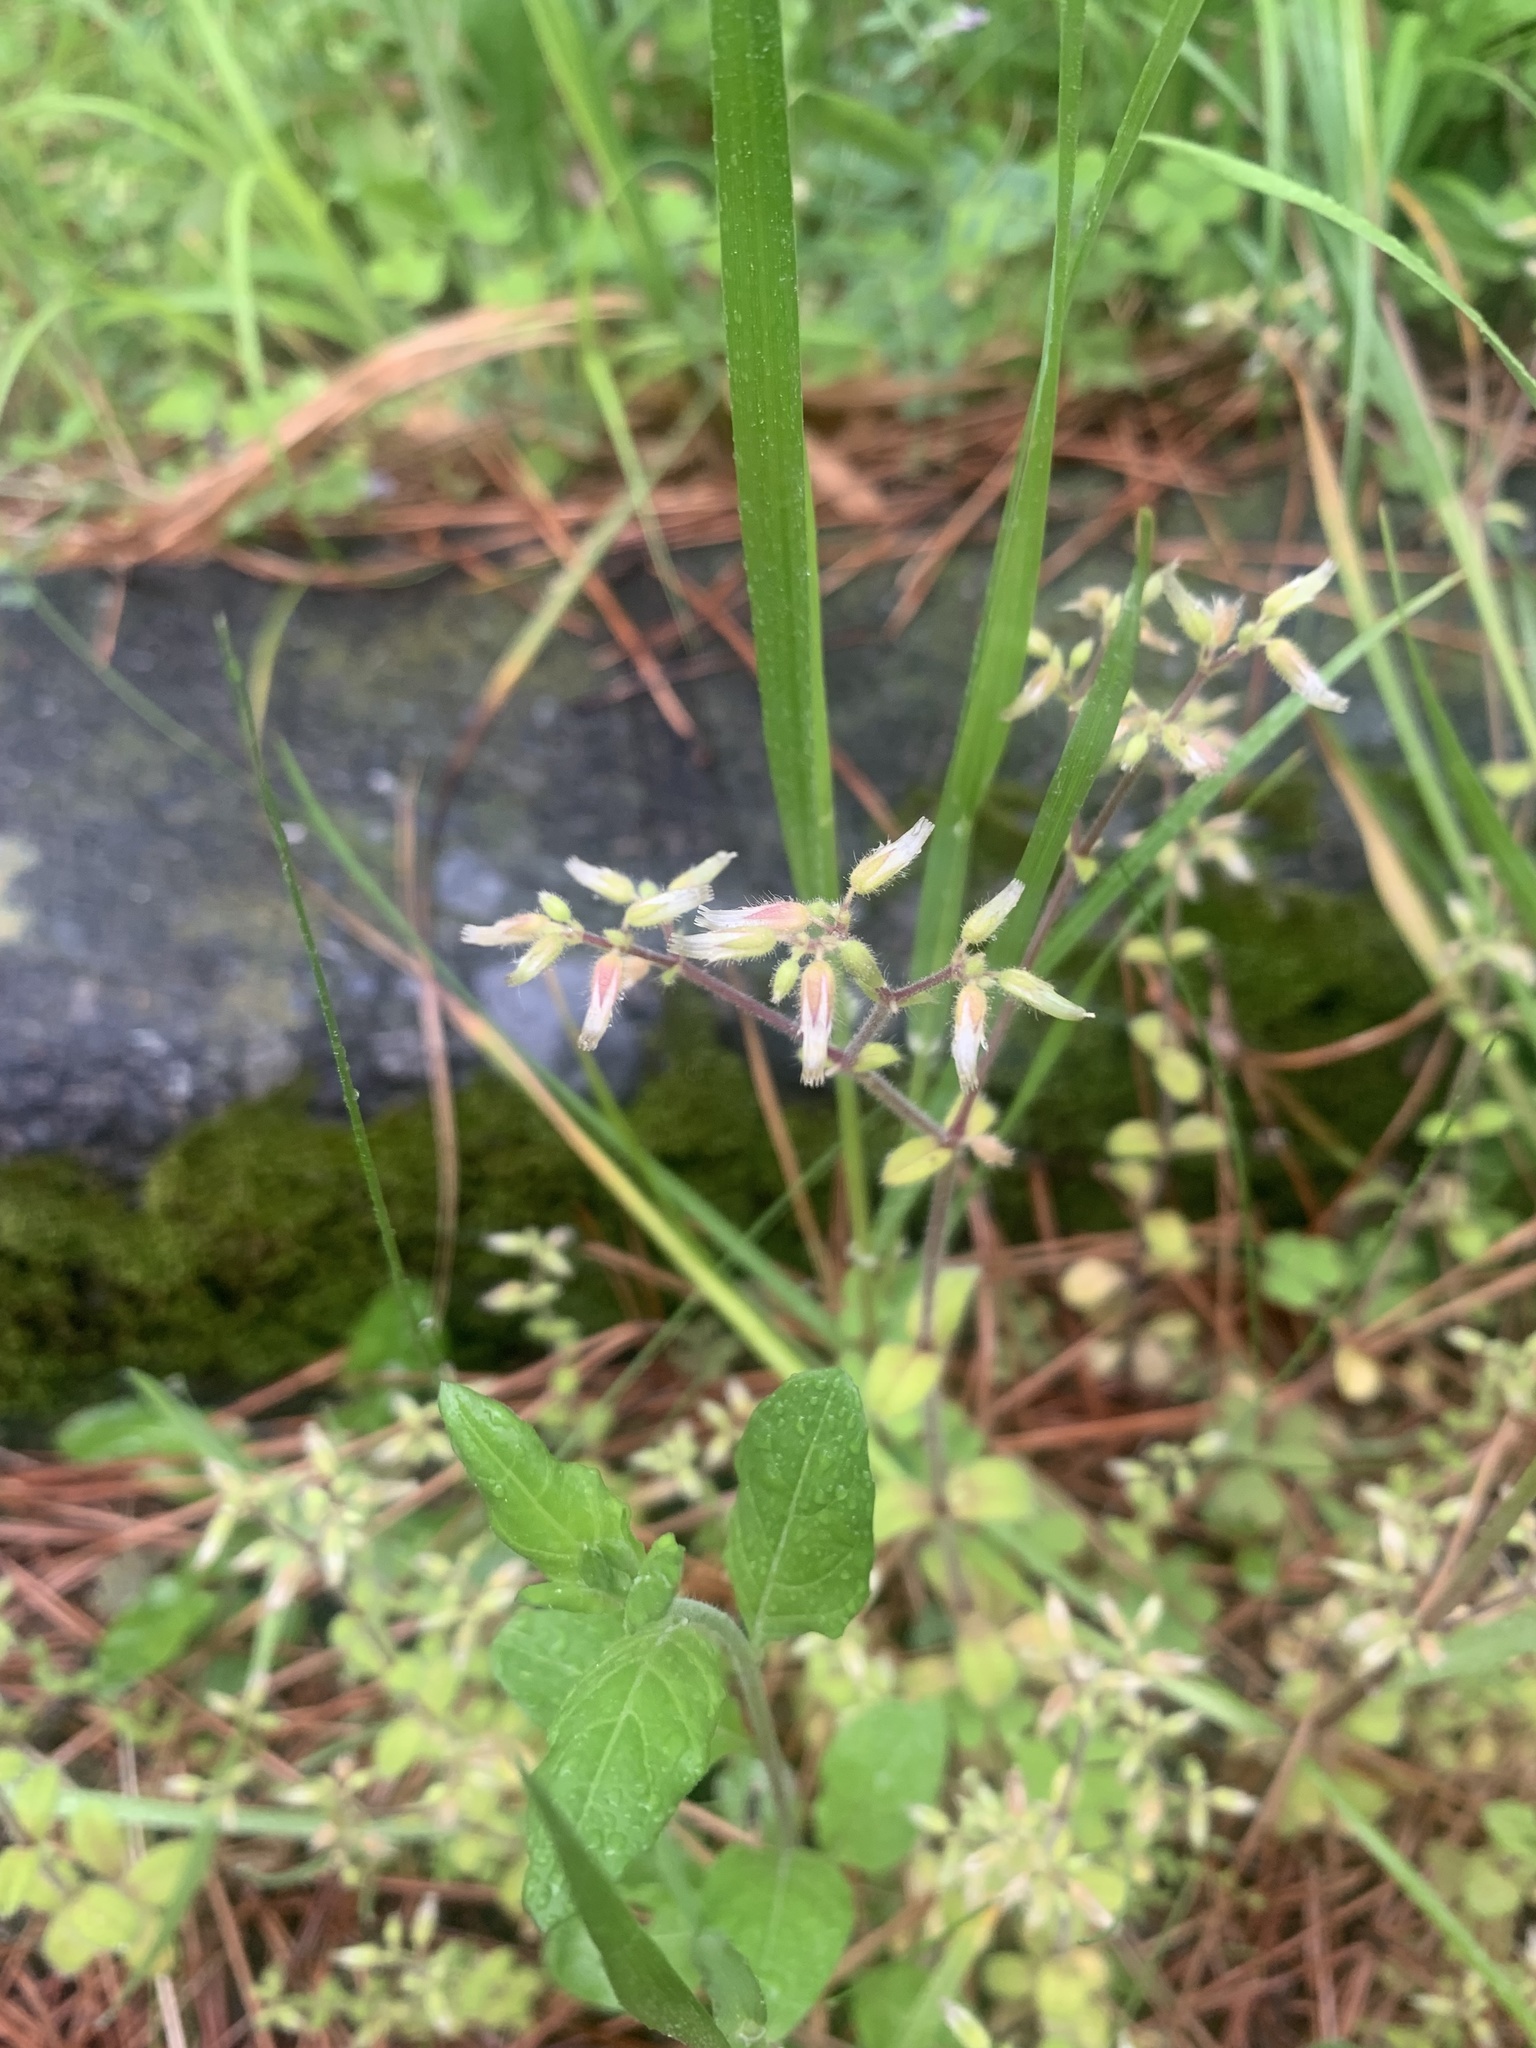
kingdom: Plantae
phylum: Tracheophyta
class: Magnoliopsida
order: Caryophyllales
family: Caryophyllaceae
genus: Cerastium
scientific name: Cerastium glomeratum
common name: Sticky chickweed
